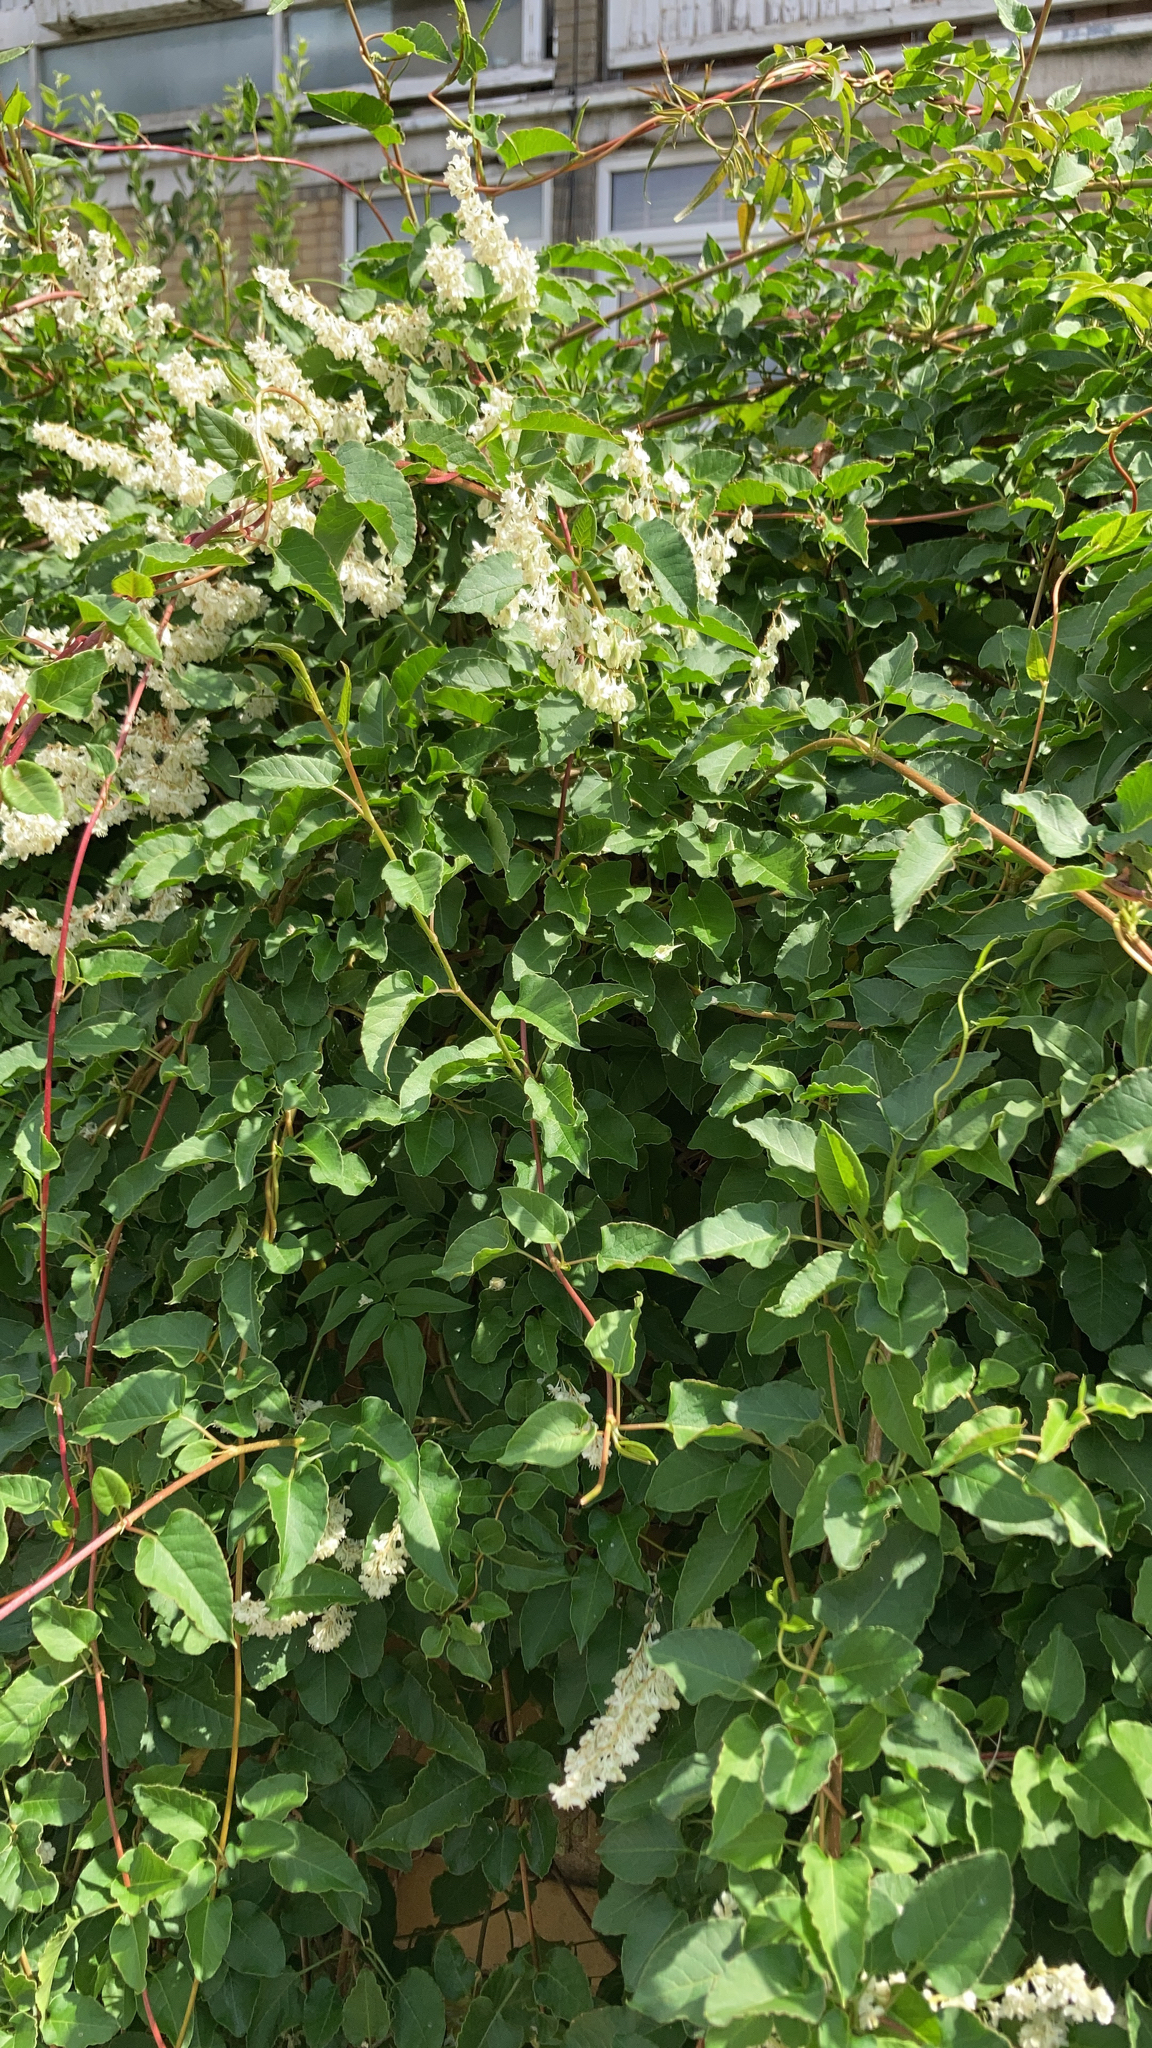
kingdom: Plantae
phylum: Tracheophyta
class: Magnoliopsida
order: Caryophyllales
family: Polygonaceae
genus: Fallopia
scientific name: Fallopia baldschuanica
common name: Russian-vine
